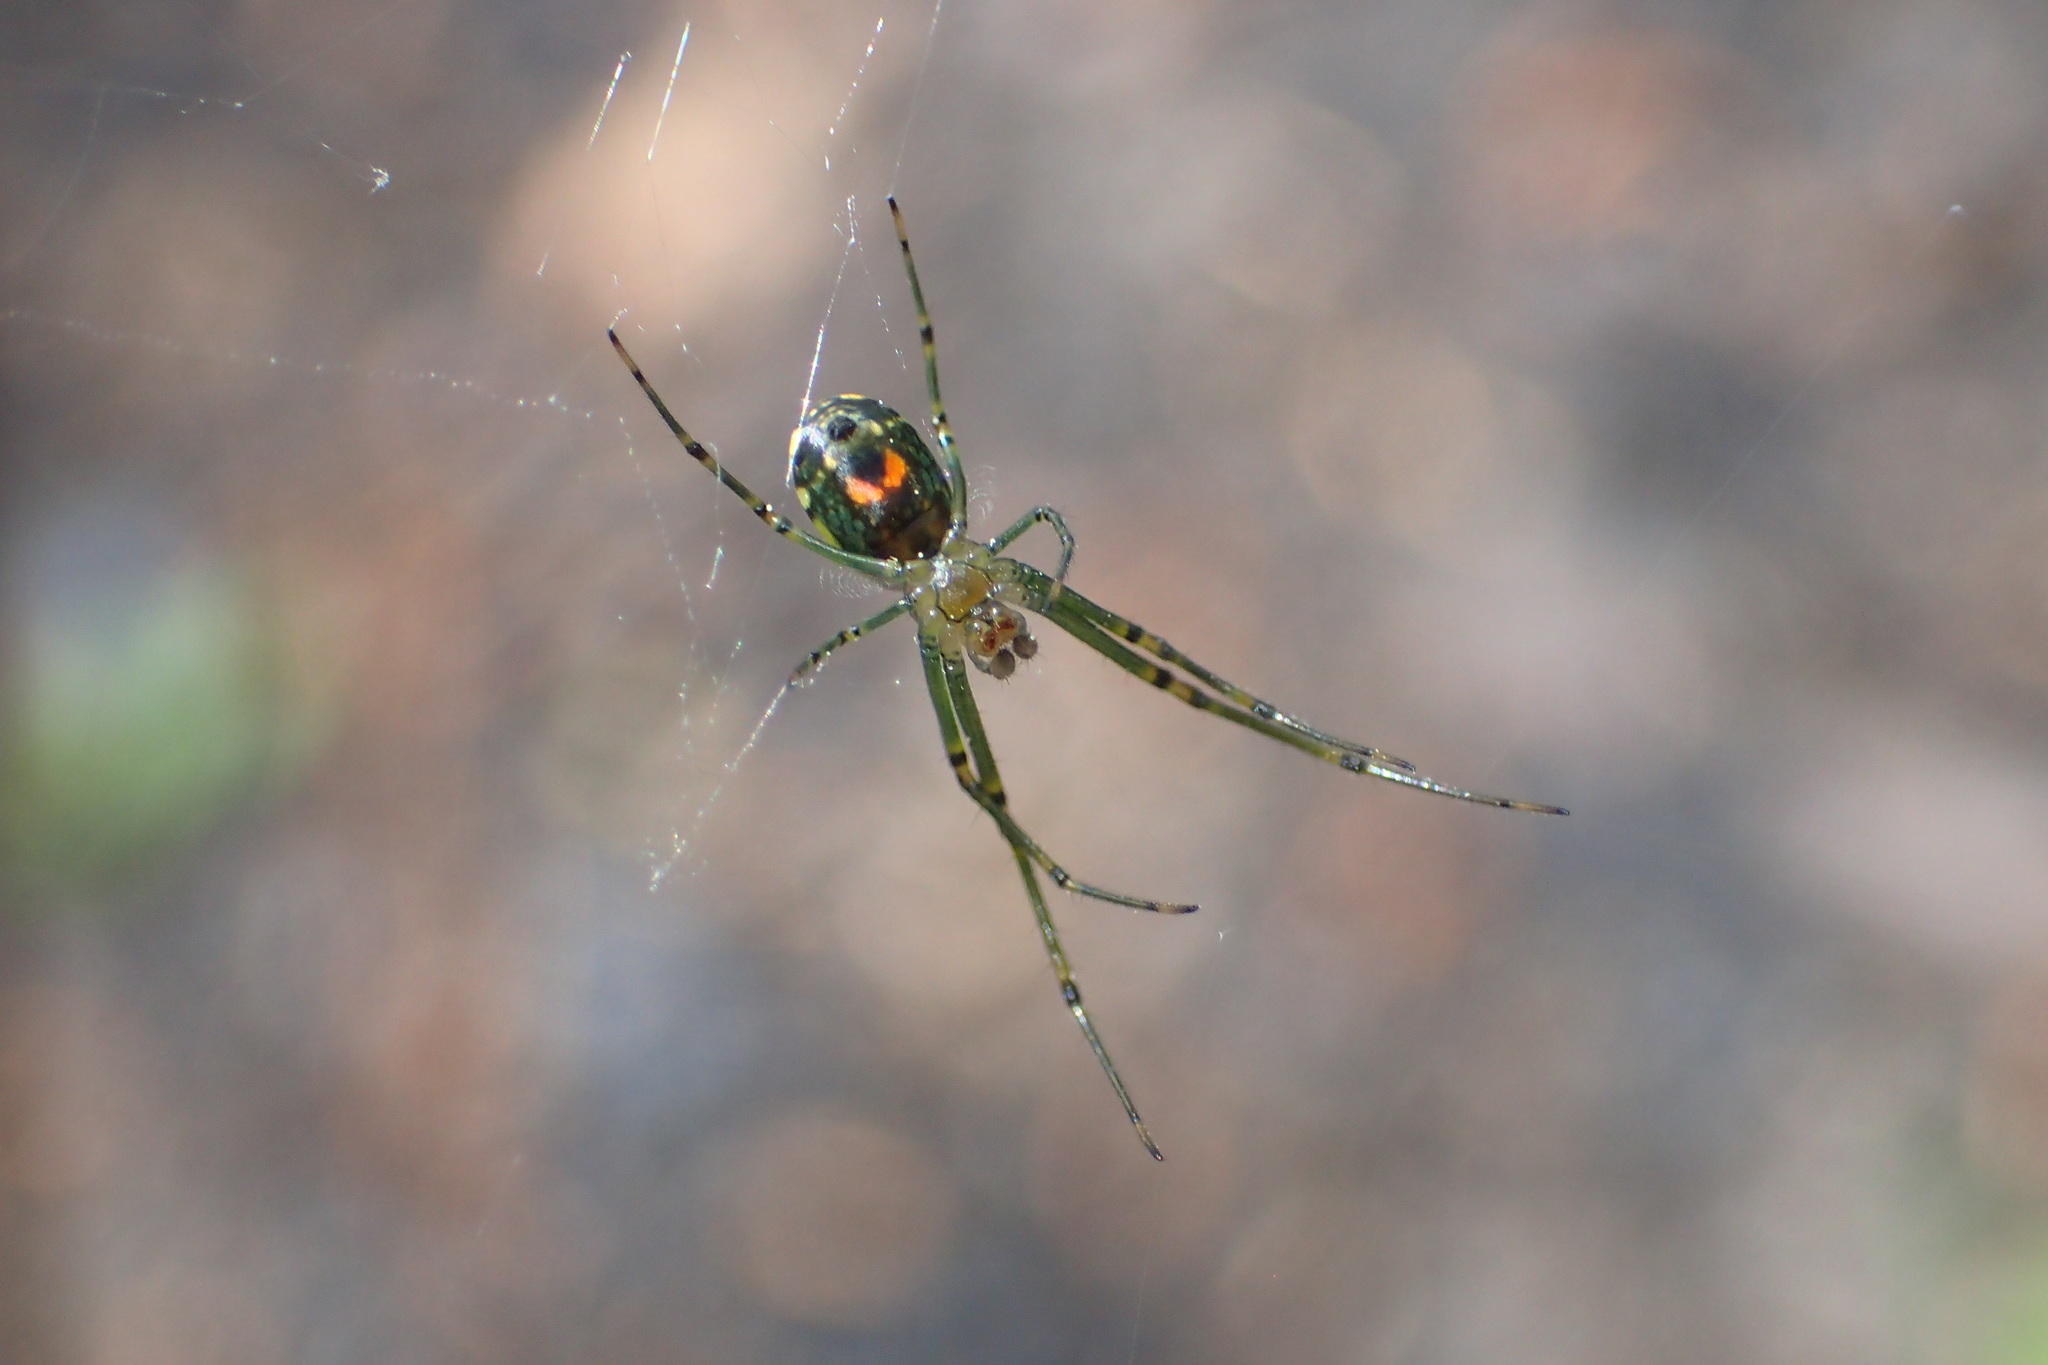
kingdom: Animalia
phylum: Arthropoda
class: Arachnida
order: Araneae
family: Tetragnathidae
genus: Leucauge
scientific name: Leucauge argyrobapta
